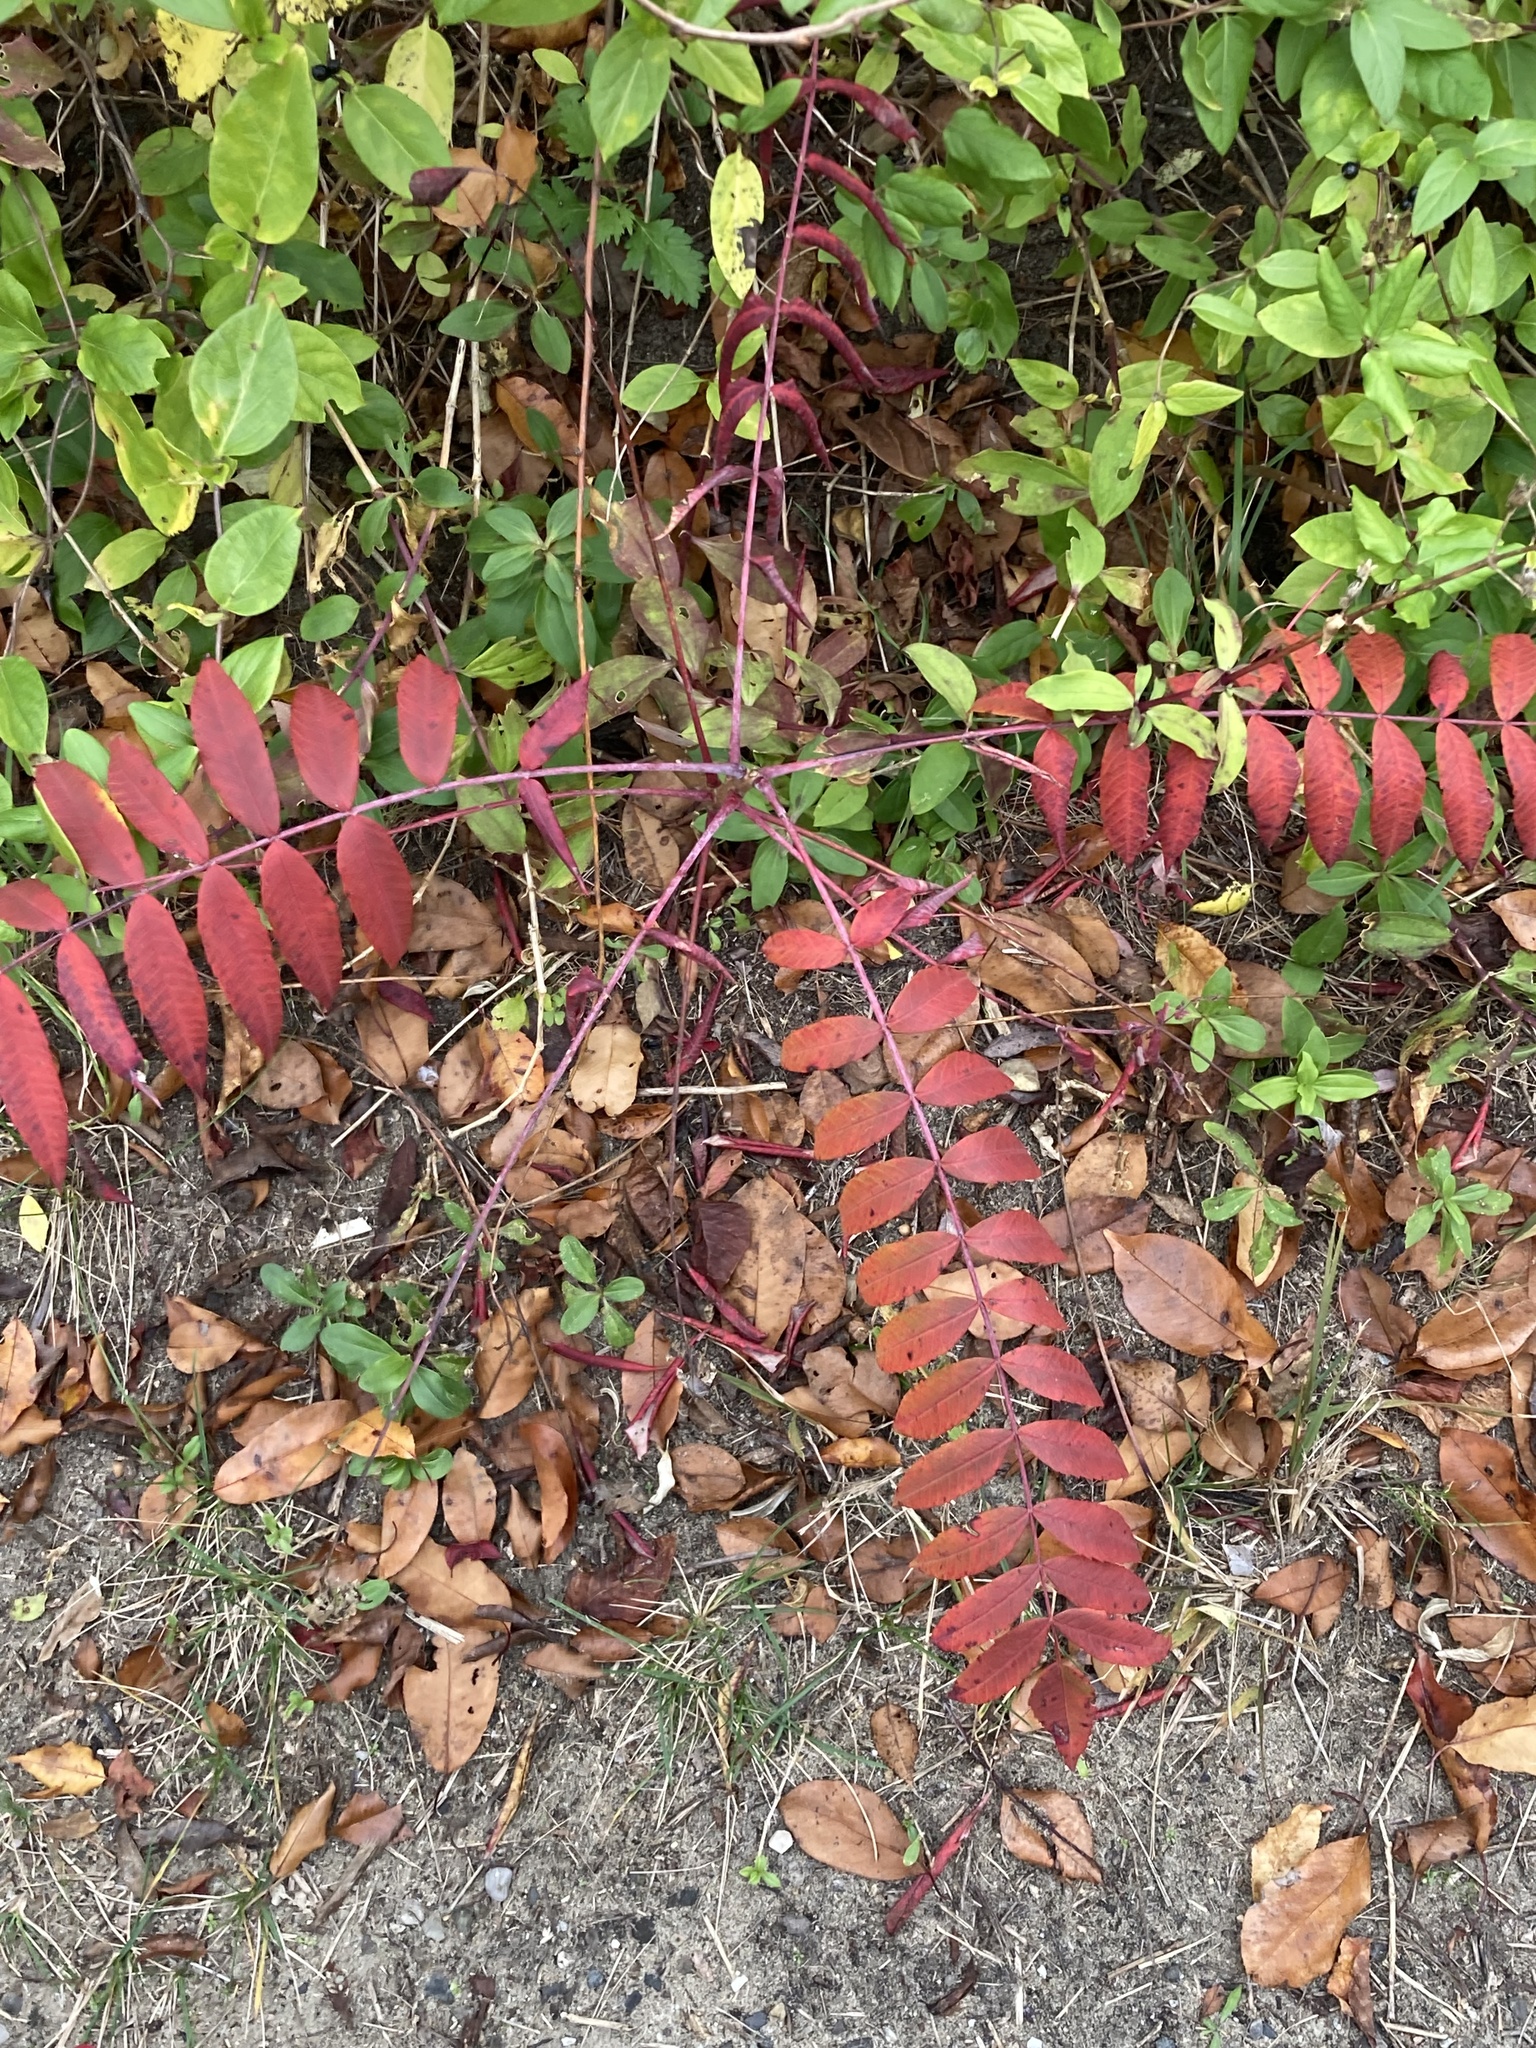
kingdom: Plantae
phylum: Tracheophyta
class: Magnoliopsida
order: Sapindales
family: Anacardiaceae
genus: Rhus
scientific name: Rhus glabra
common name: Scarlet sumac
